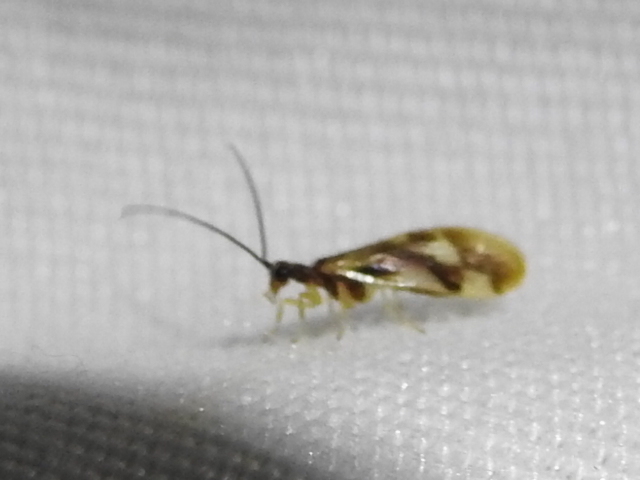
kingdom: Animalia
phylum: Arthropoda
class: Insecta
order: Neuroptera
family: Sisyridae
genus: Climacia
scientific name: Climacia areolaris
